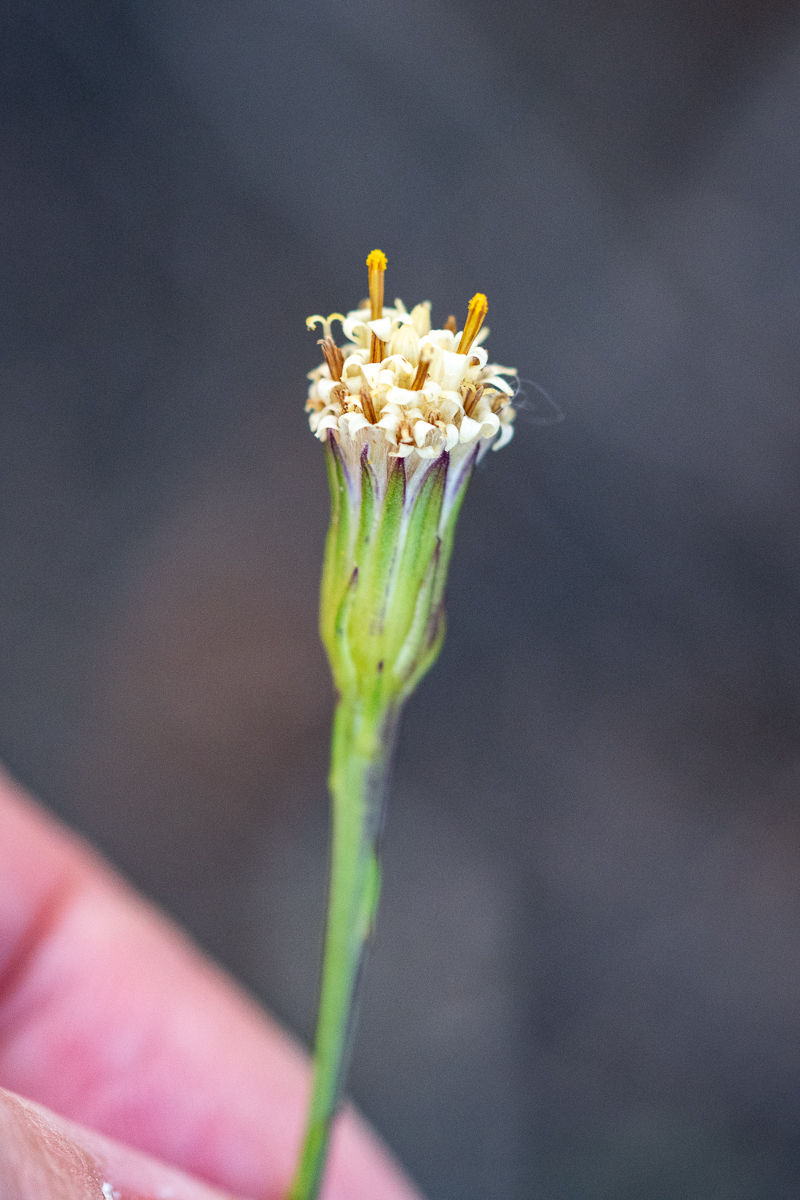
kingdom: Plantae
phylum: Tracheophyta
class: Magnoliopsida
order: Asterales
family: Asteraceae
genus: Senecio
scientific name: Senecio triqueter
